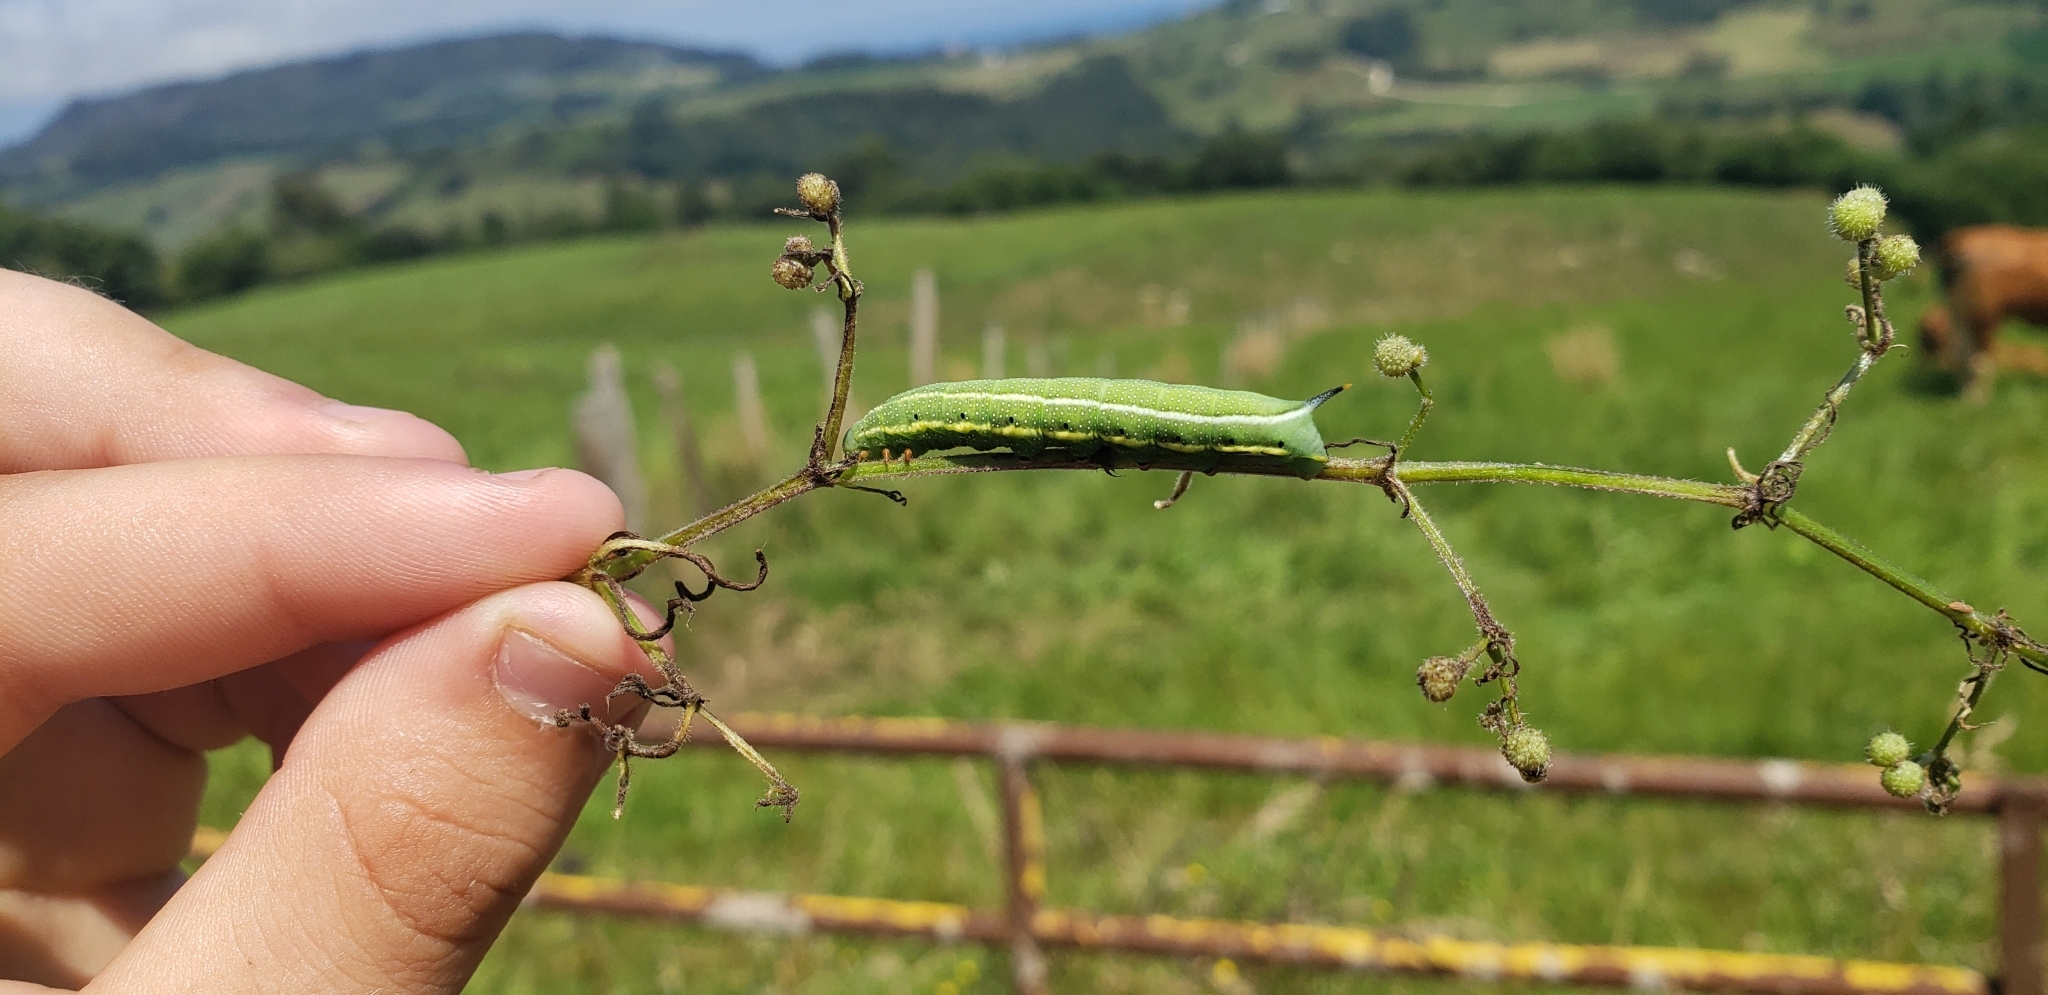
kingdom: Animalia
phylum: Arthropoda
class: Insecta
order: Lepidoptera
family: Sphingidae
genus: Macroglossum
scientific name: Macroglossum stellatarum
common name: Humming-bird hawk-moth
